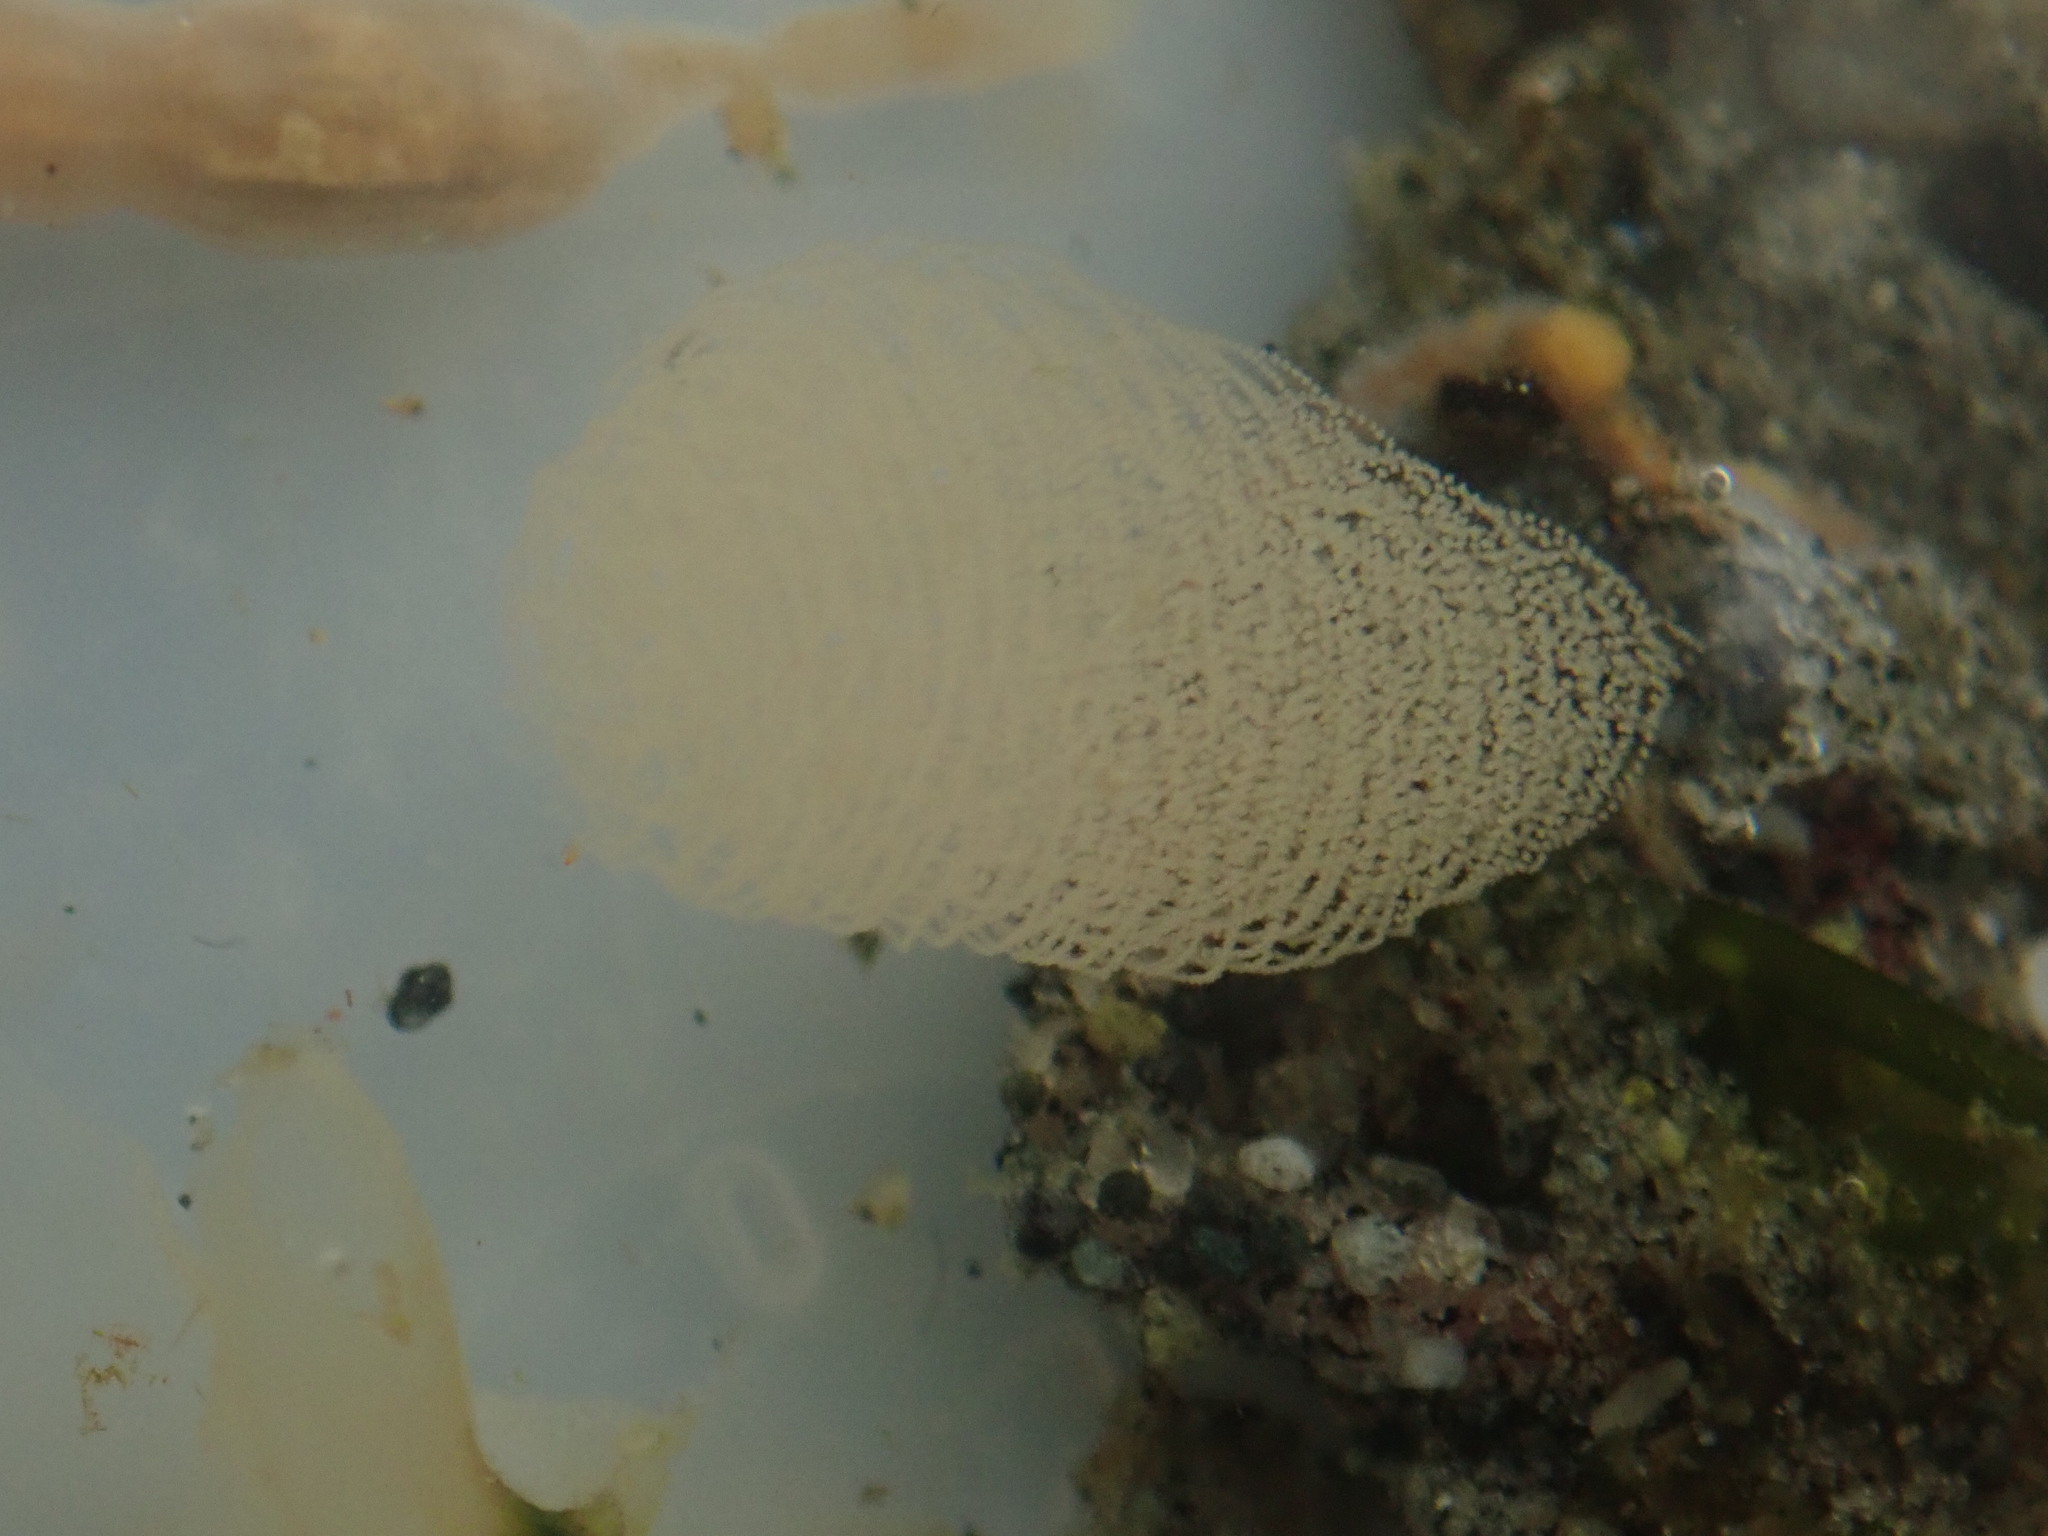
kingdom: Animalia
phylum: Mollusca
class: Gastropoda
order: Cephalaspidea
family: Aglajidae
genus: Melanochlamys
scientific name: Melanochlamys diomedea
